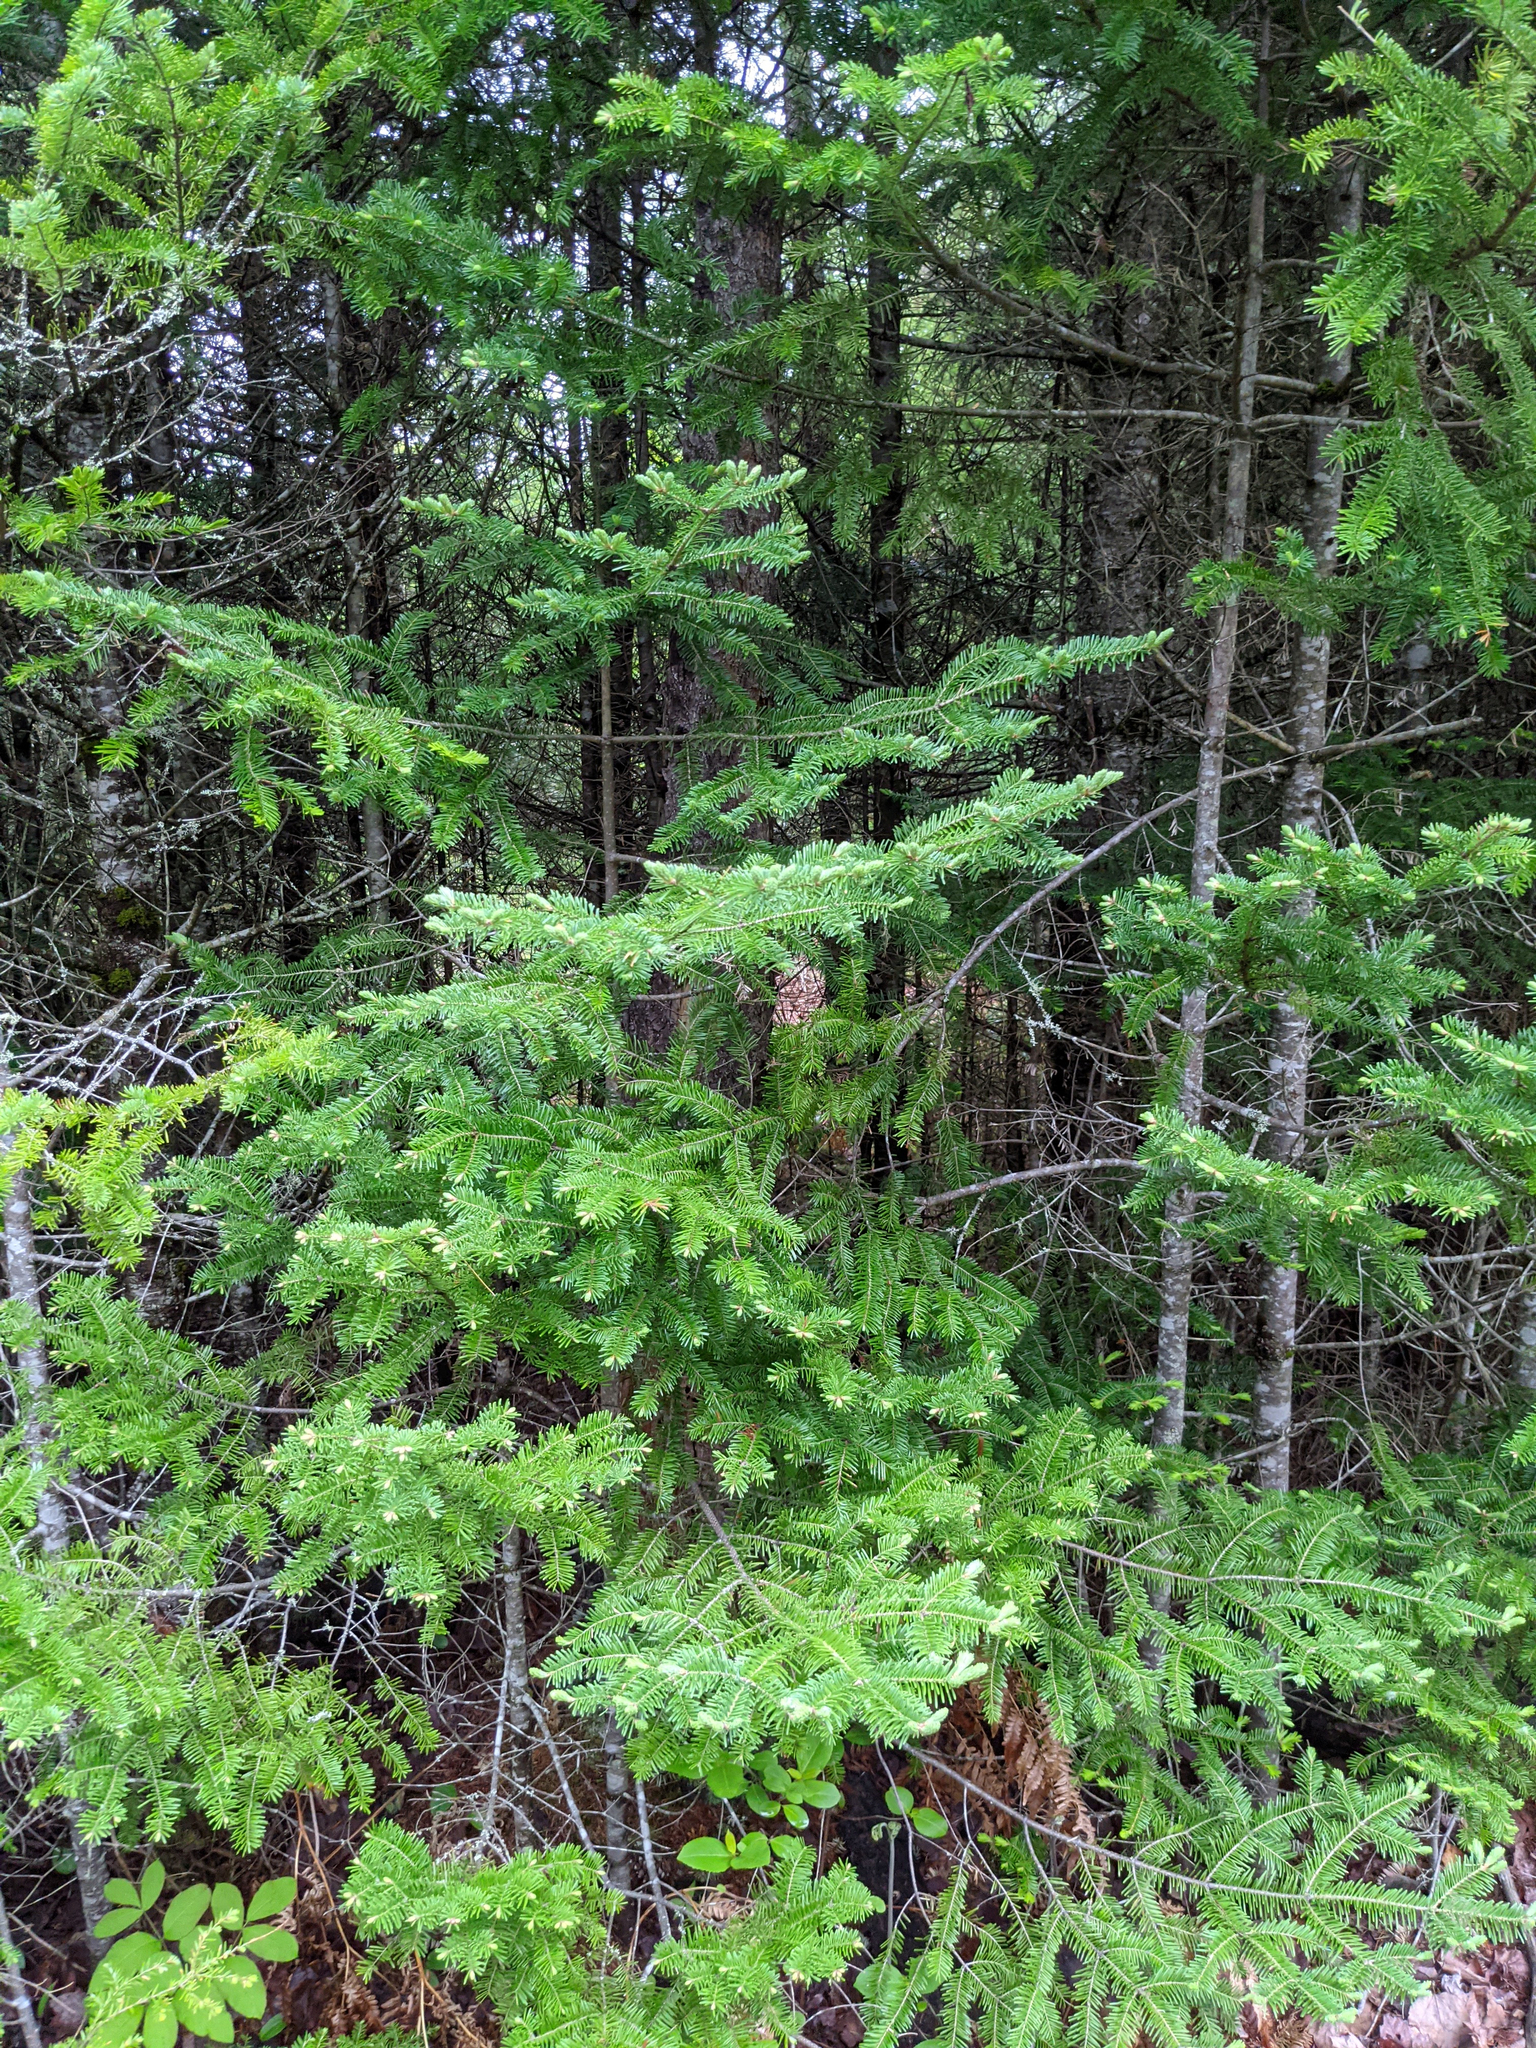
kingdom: Plantae
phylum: Tracheophyta
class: Pinopsida
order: Pinales
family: Pinaceae
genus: Abies
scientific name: Abies balsamea
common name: Balsam fir
